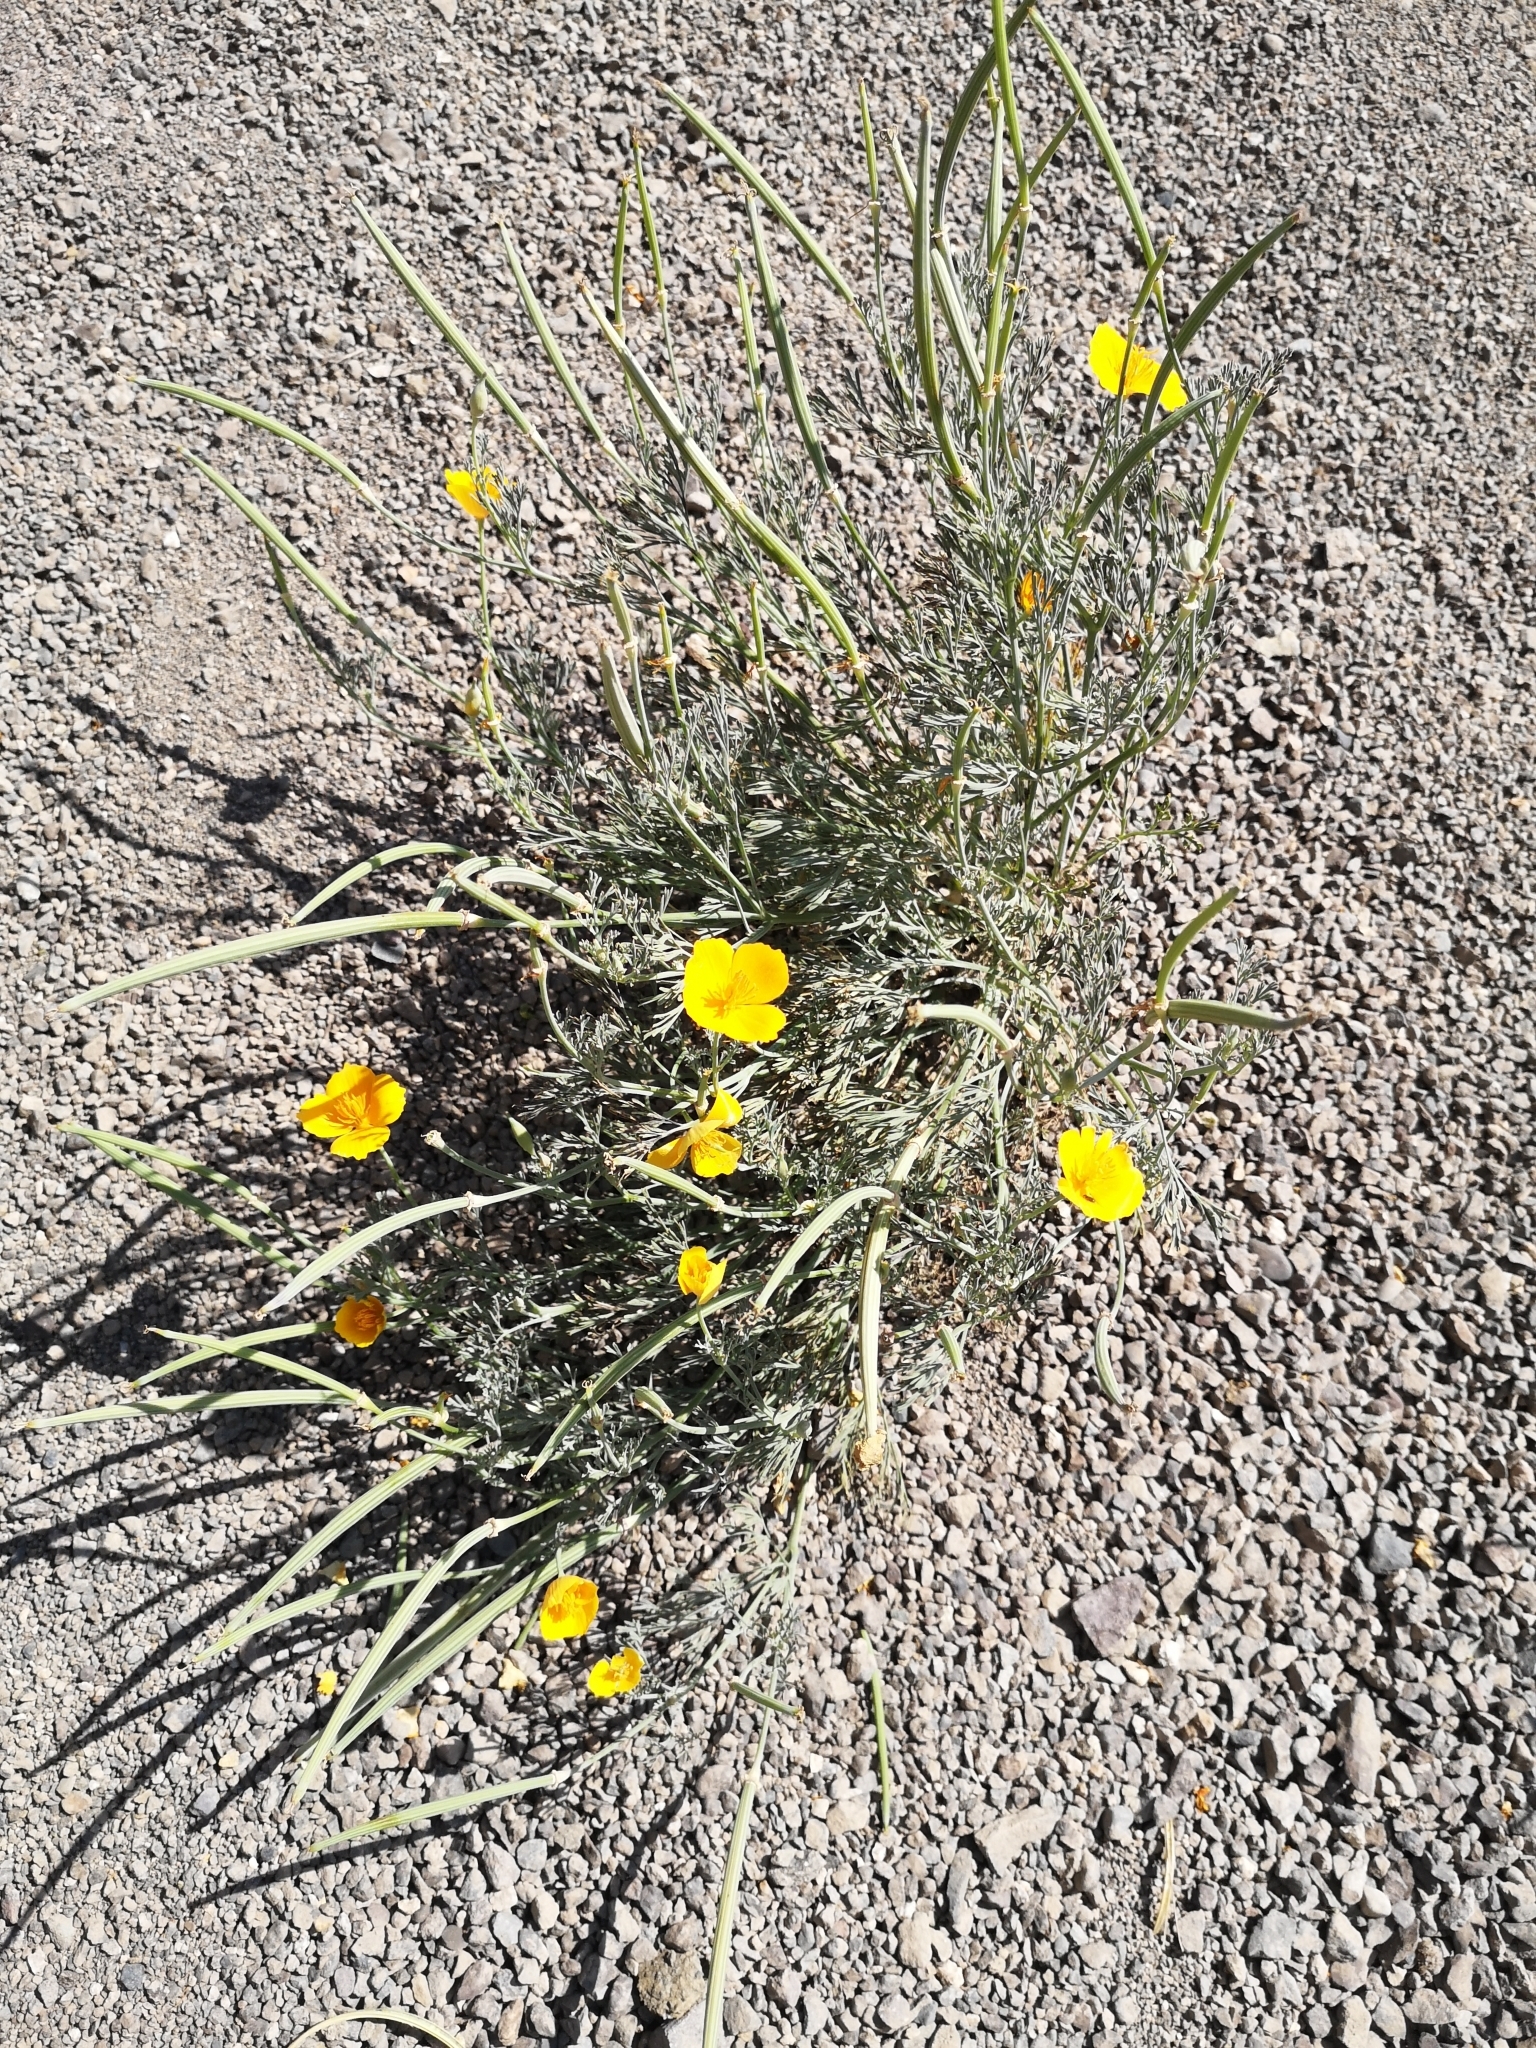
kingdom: Plantae
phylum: Tracheophyta
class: Magnoliopsida
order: Ranunculales
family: Papaveraceae
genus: Eschscholzia
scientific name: Eschscholzia californica
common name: California poppy
